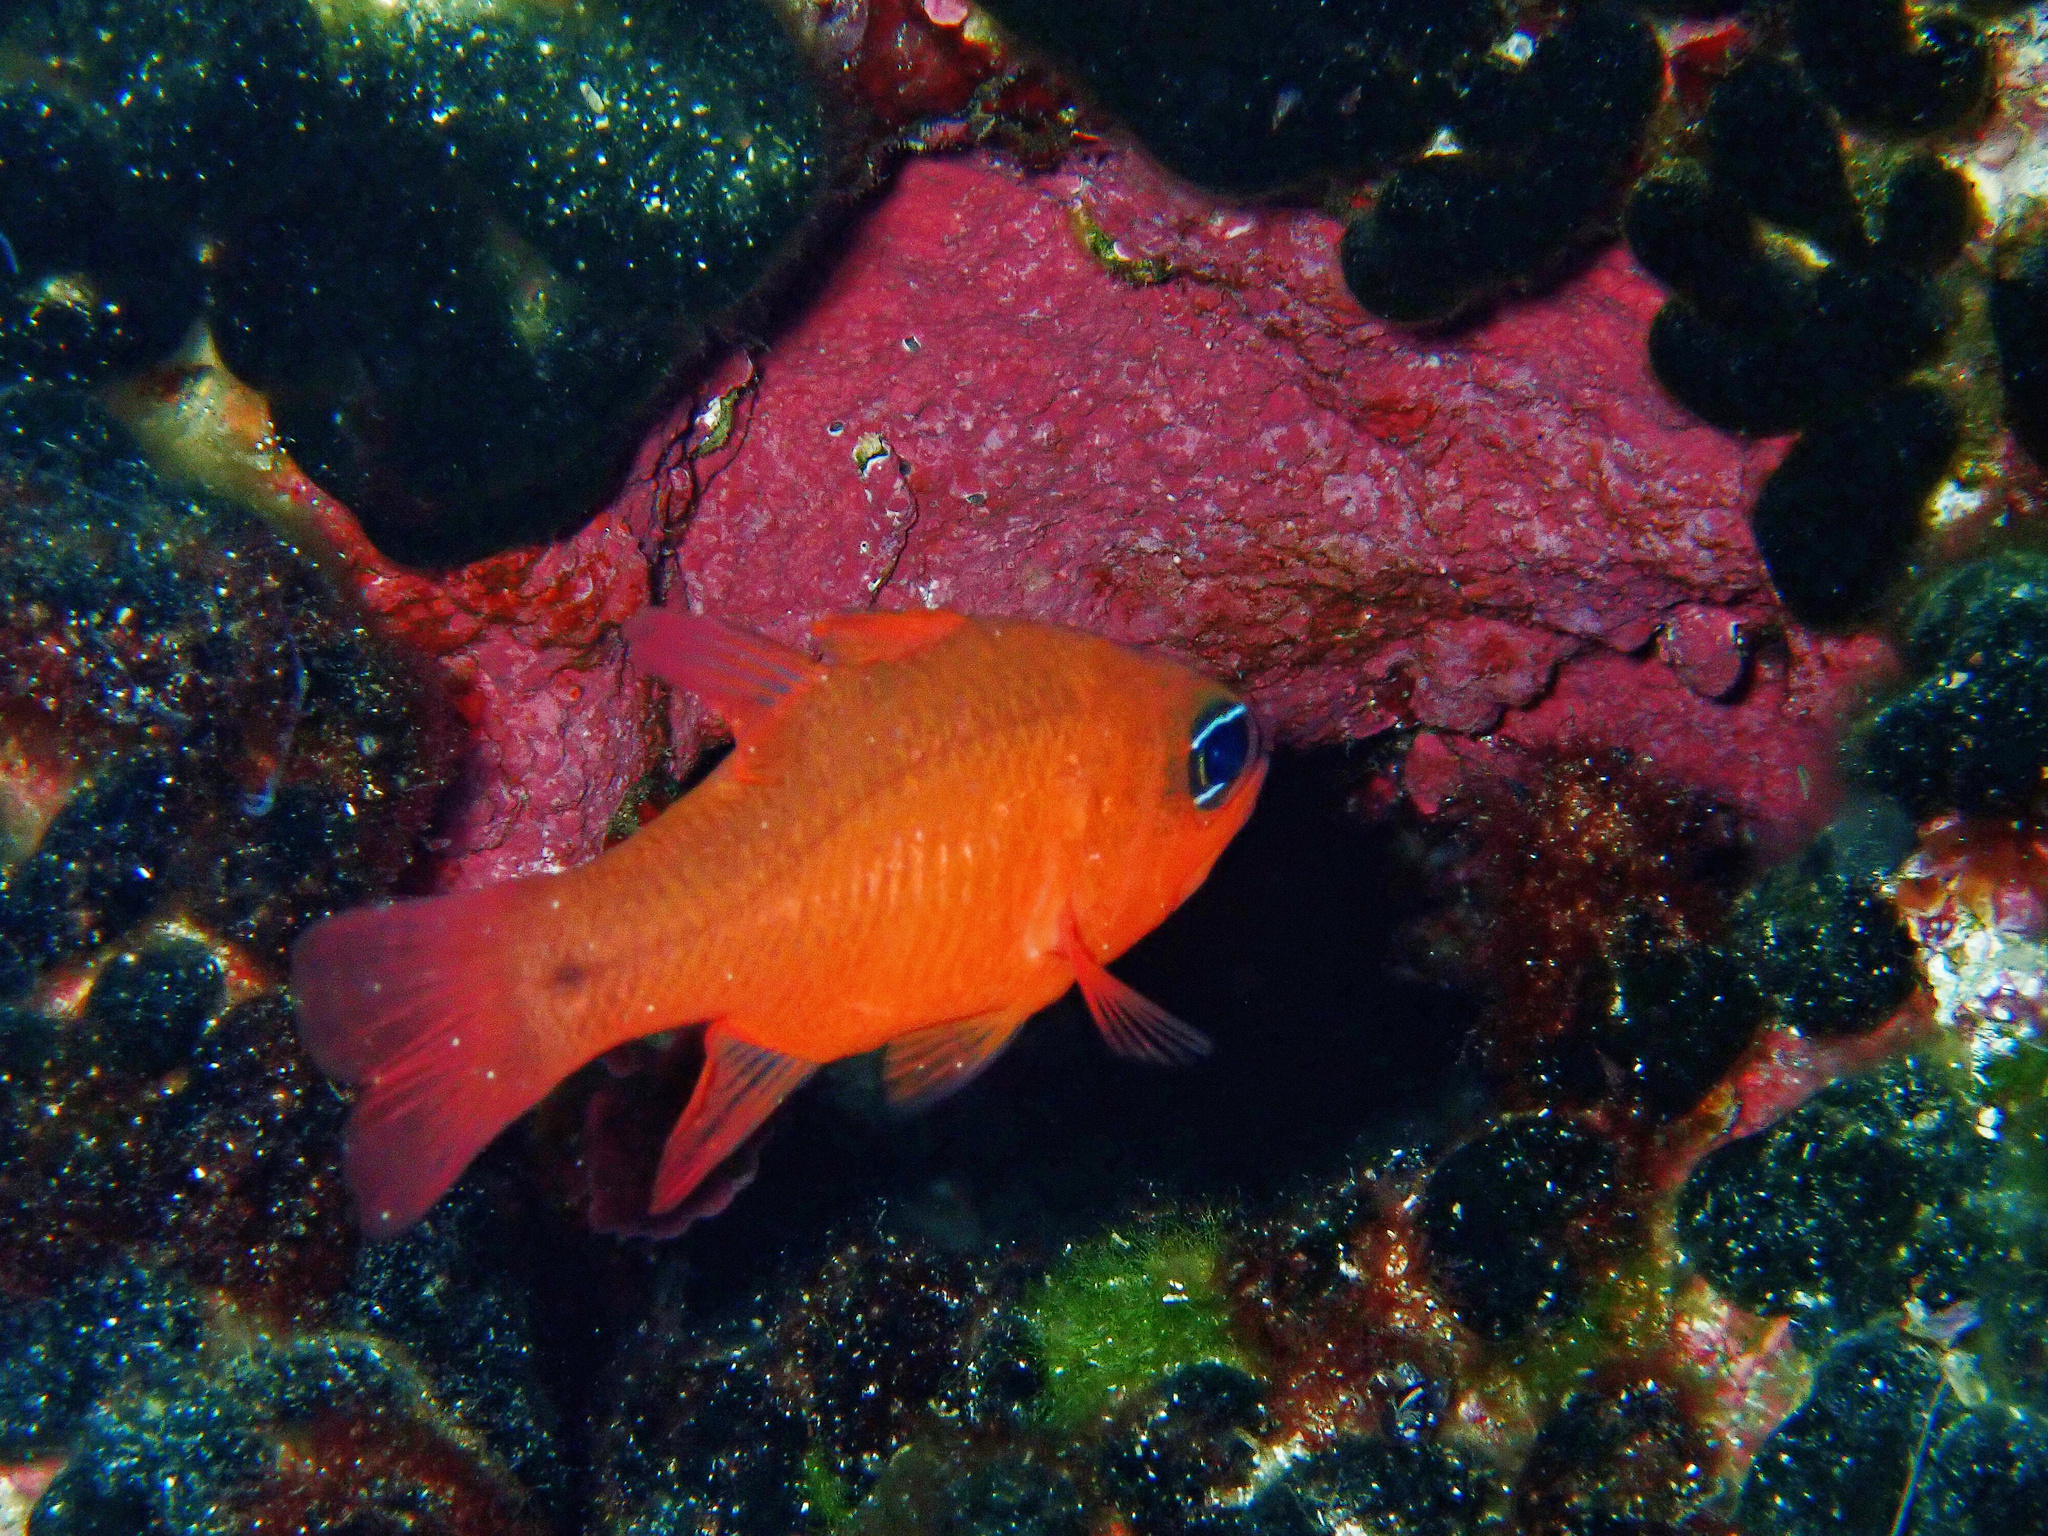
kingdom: Animalia
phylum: Chordata
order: Perciformes
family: Apogonidae
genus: Apogon
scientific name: Apogon imberbis
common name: Cardinal fish
